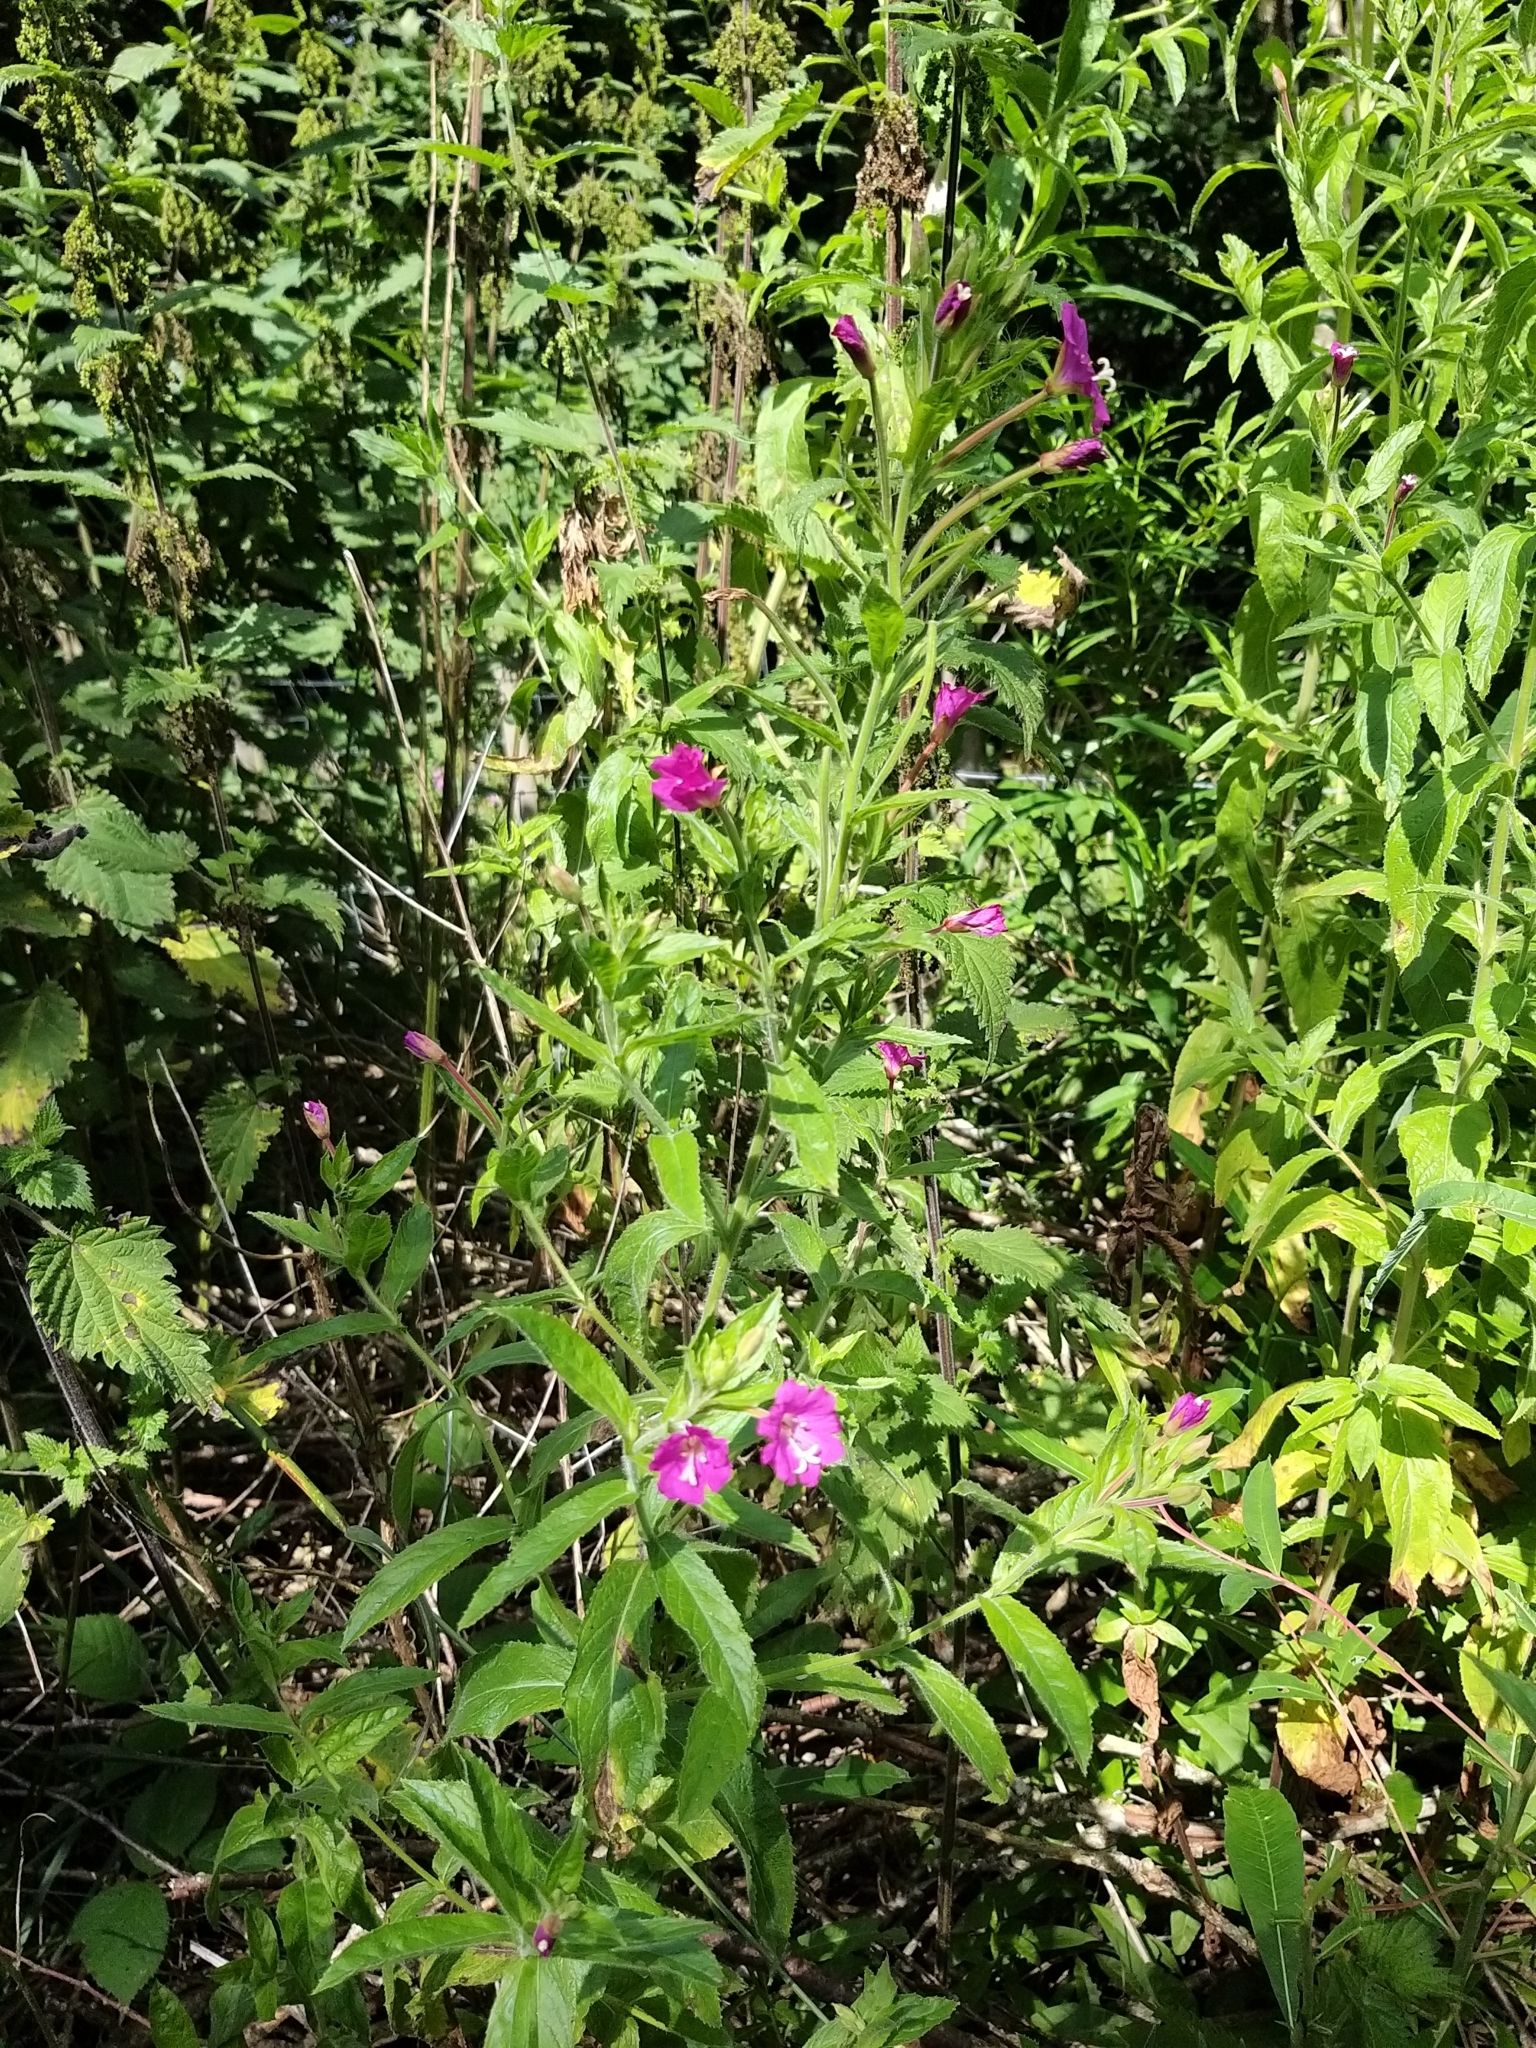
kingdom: Plantae
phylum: Tracheophyta
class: Magnoliopsida
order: Myrtales
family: Onagraceae
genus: Epilobium
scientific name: Epilobium hirsutum
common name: Great willowherb
